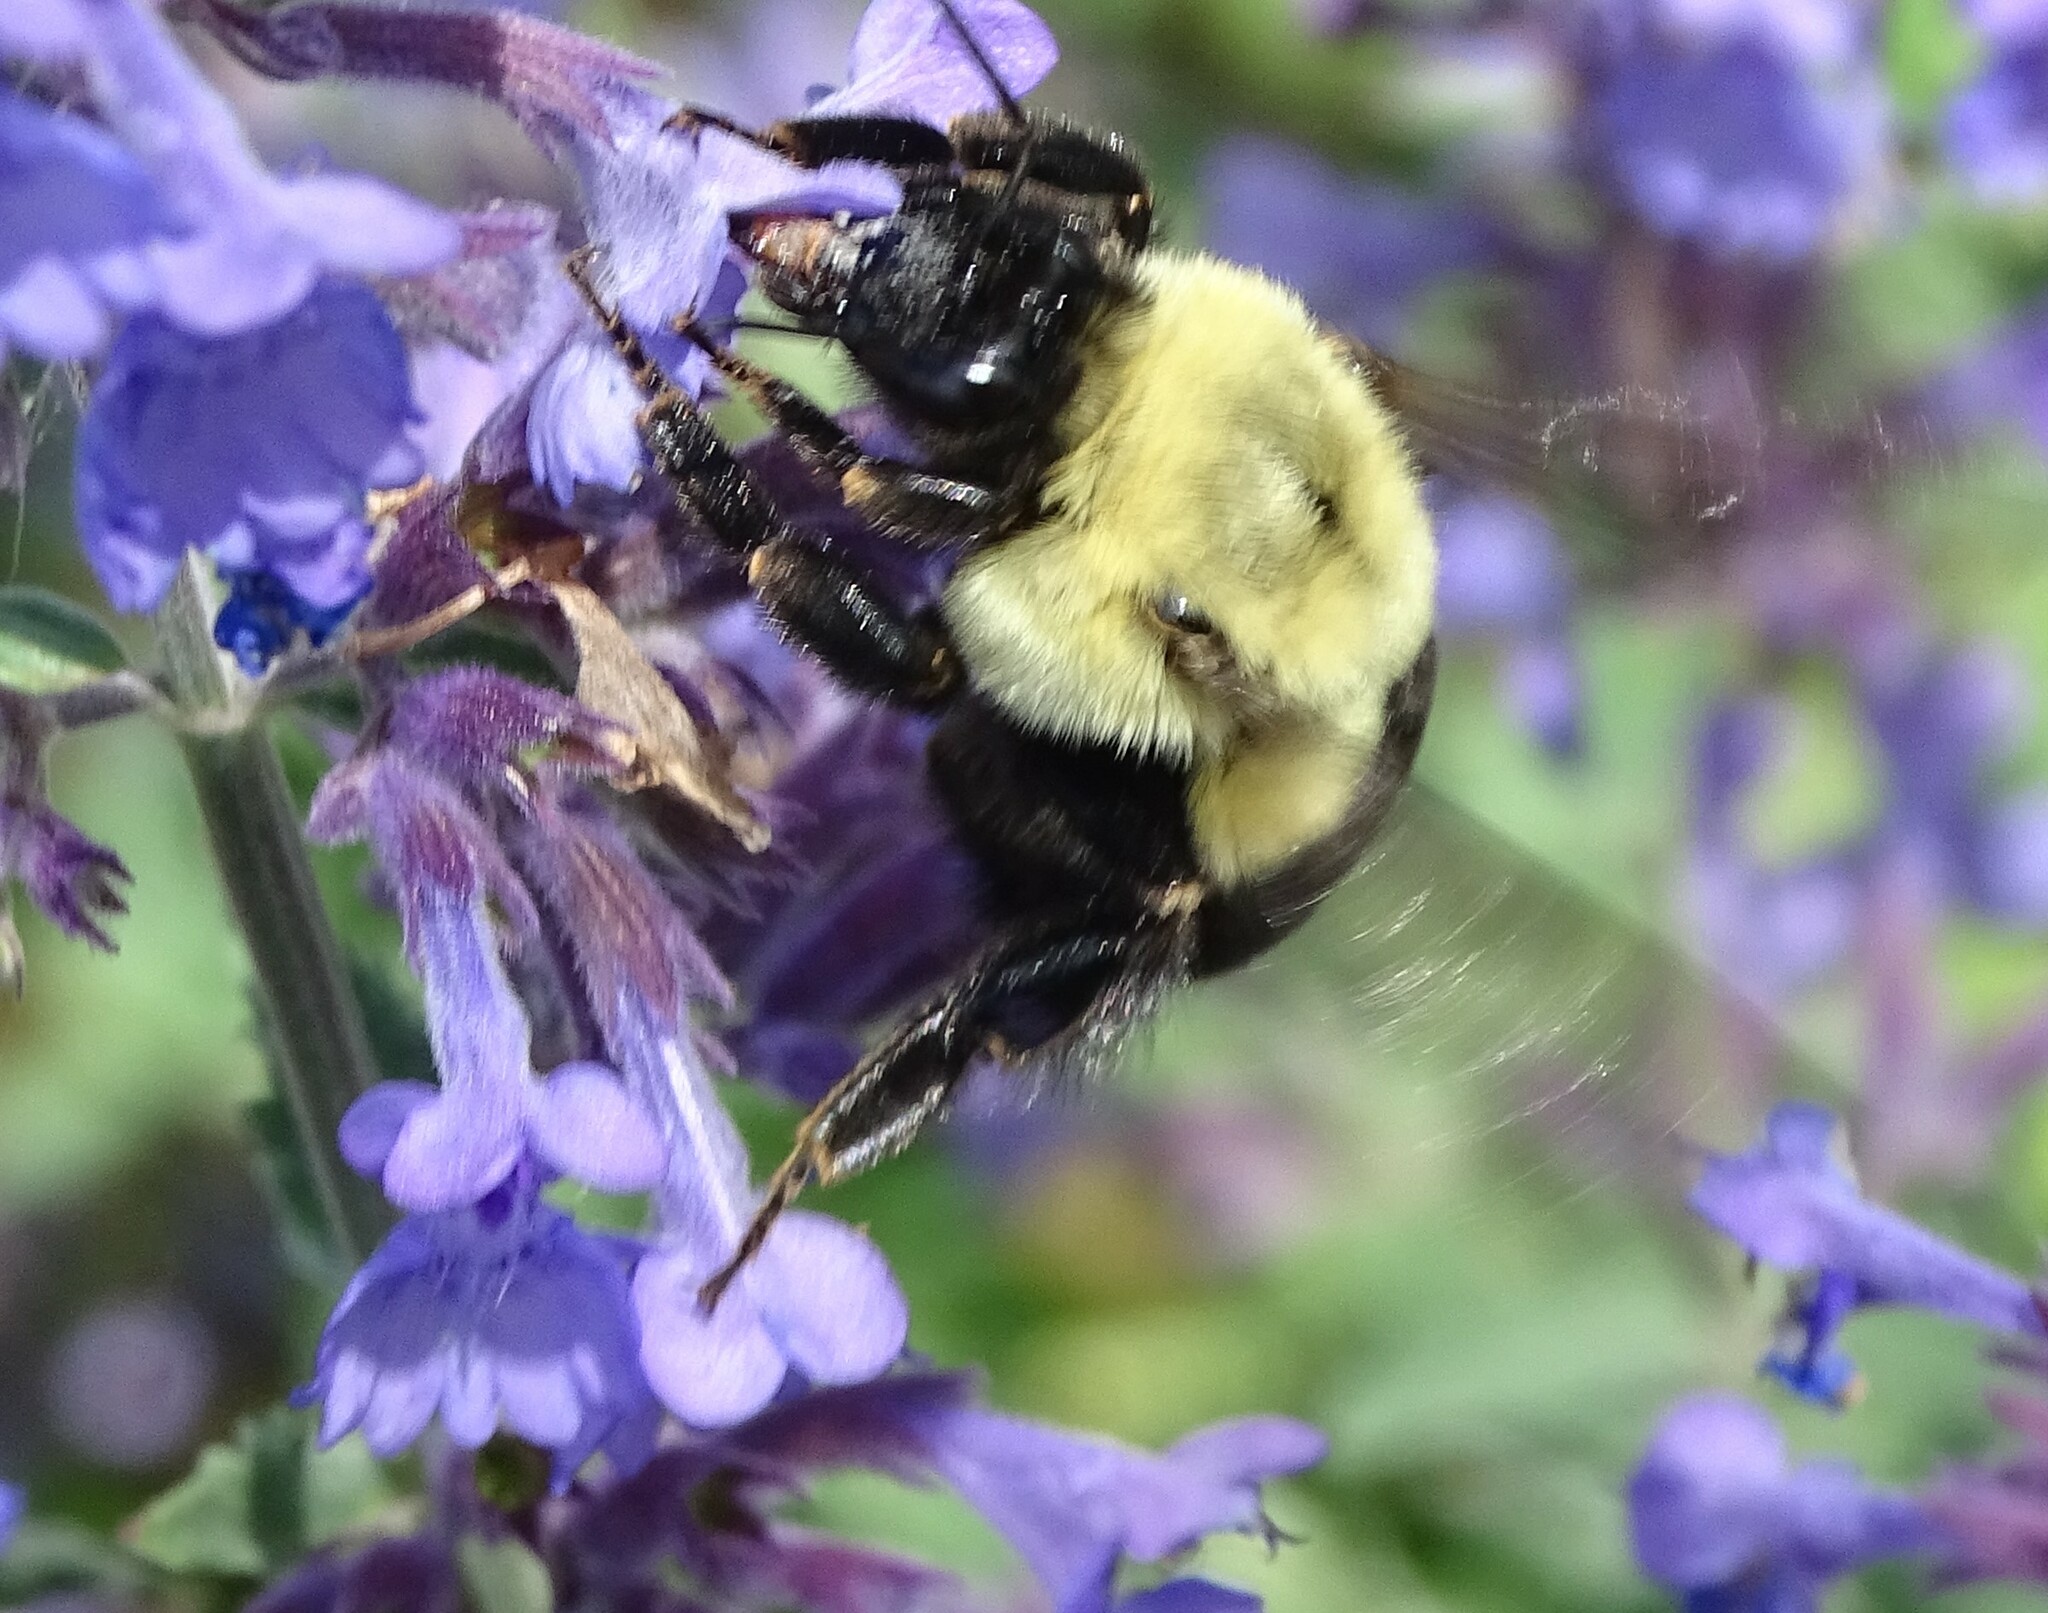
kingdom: Animalia
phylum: Arthropoda
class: Insecta
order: Hymenoptera
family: Apidae
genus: Bombus
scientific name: Bombus impatiens
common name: Common eastern bumble bee
